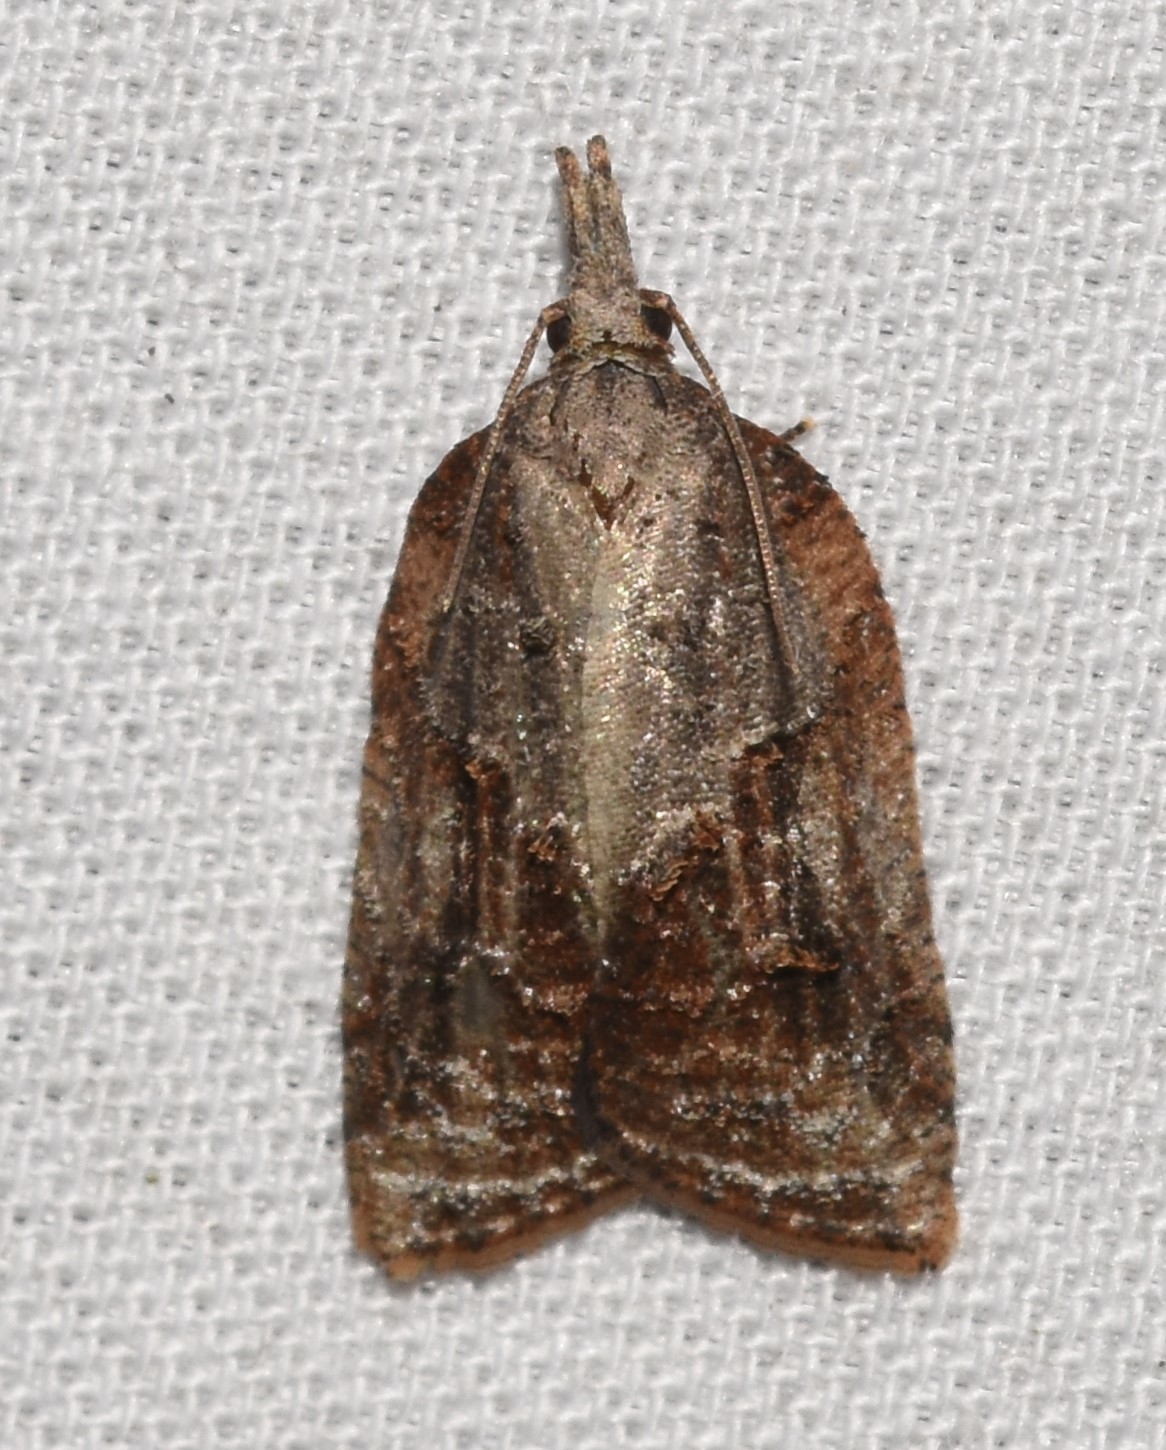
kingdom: Animalia
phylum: Arthropoda
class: Insecta
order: Lepidoptera
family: Tortricidae
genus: Platynota
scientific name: Platynota idaeusalis
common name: Tufted apple bud moth
